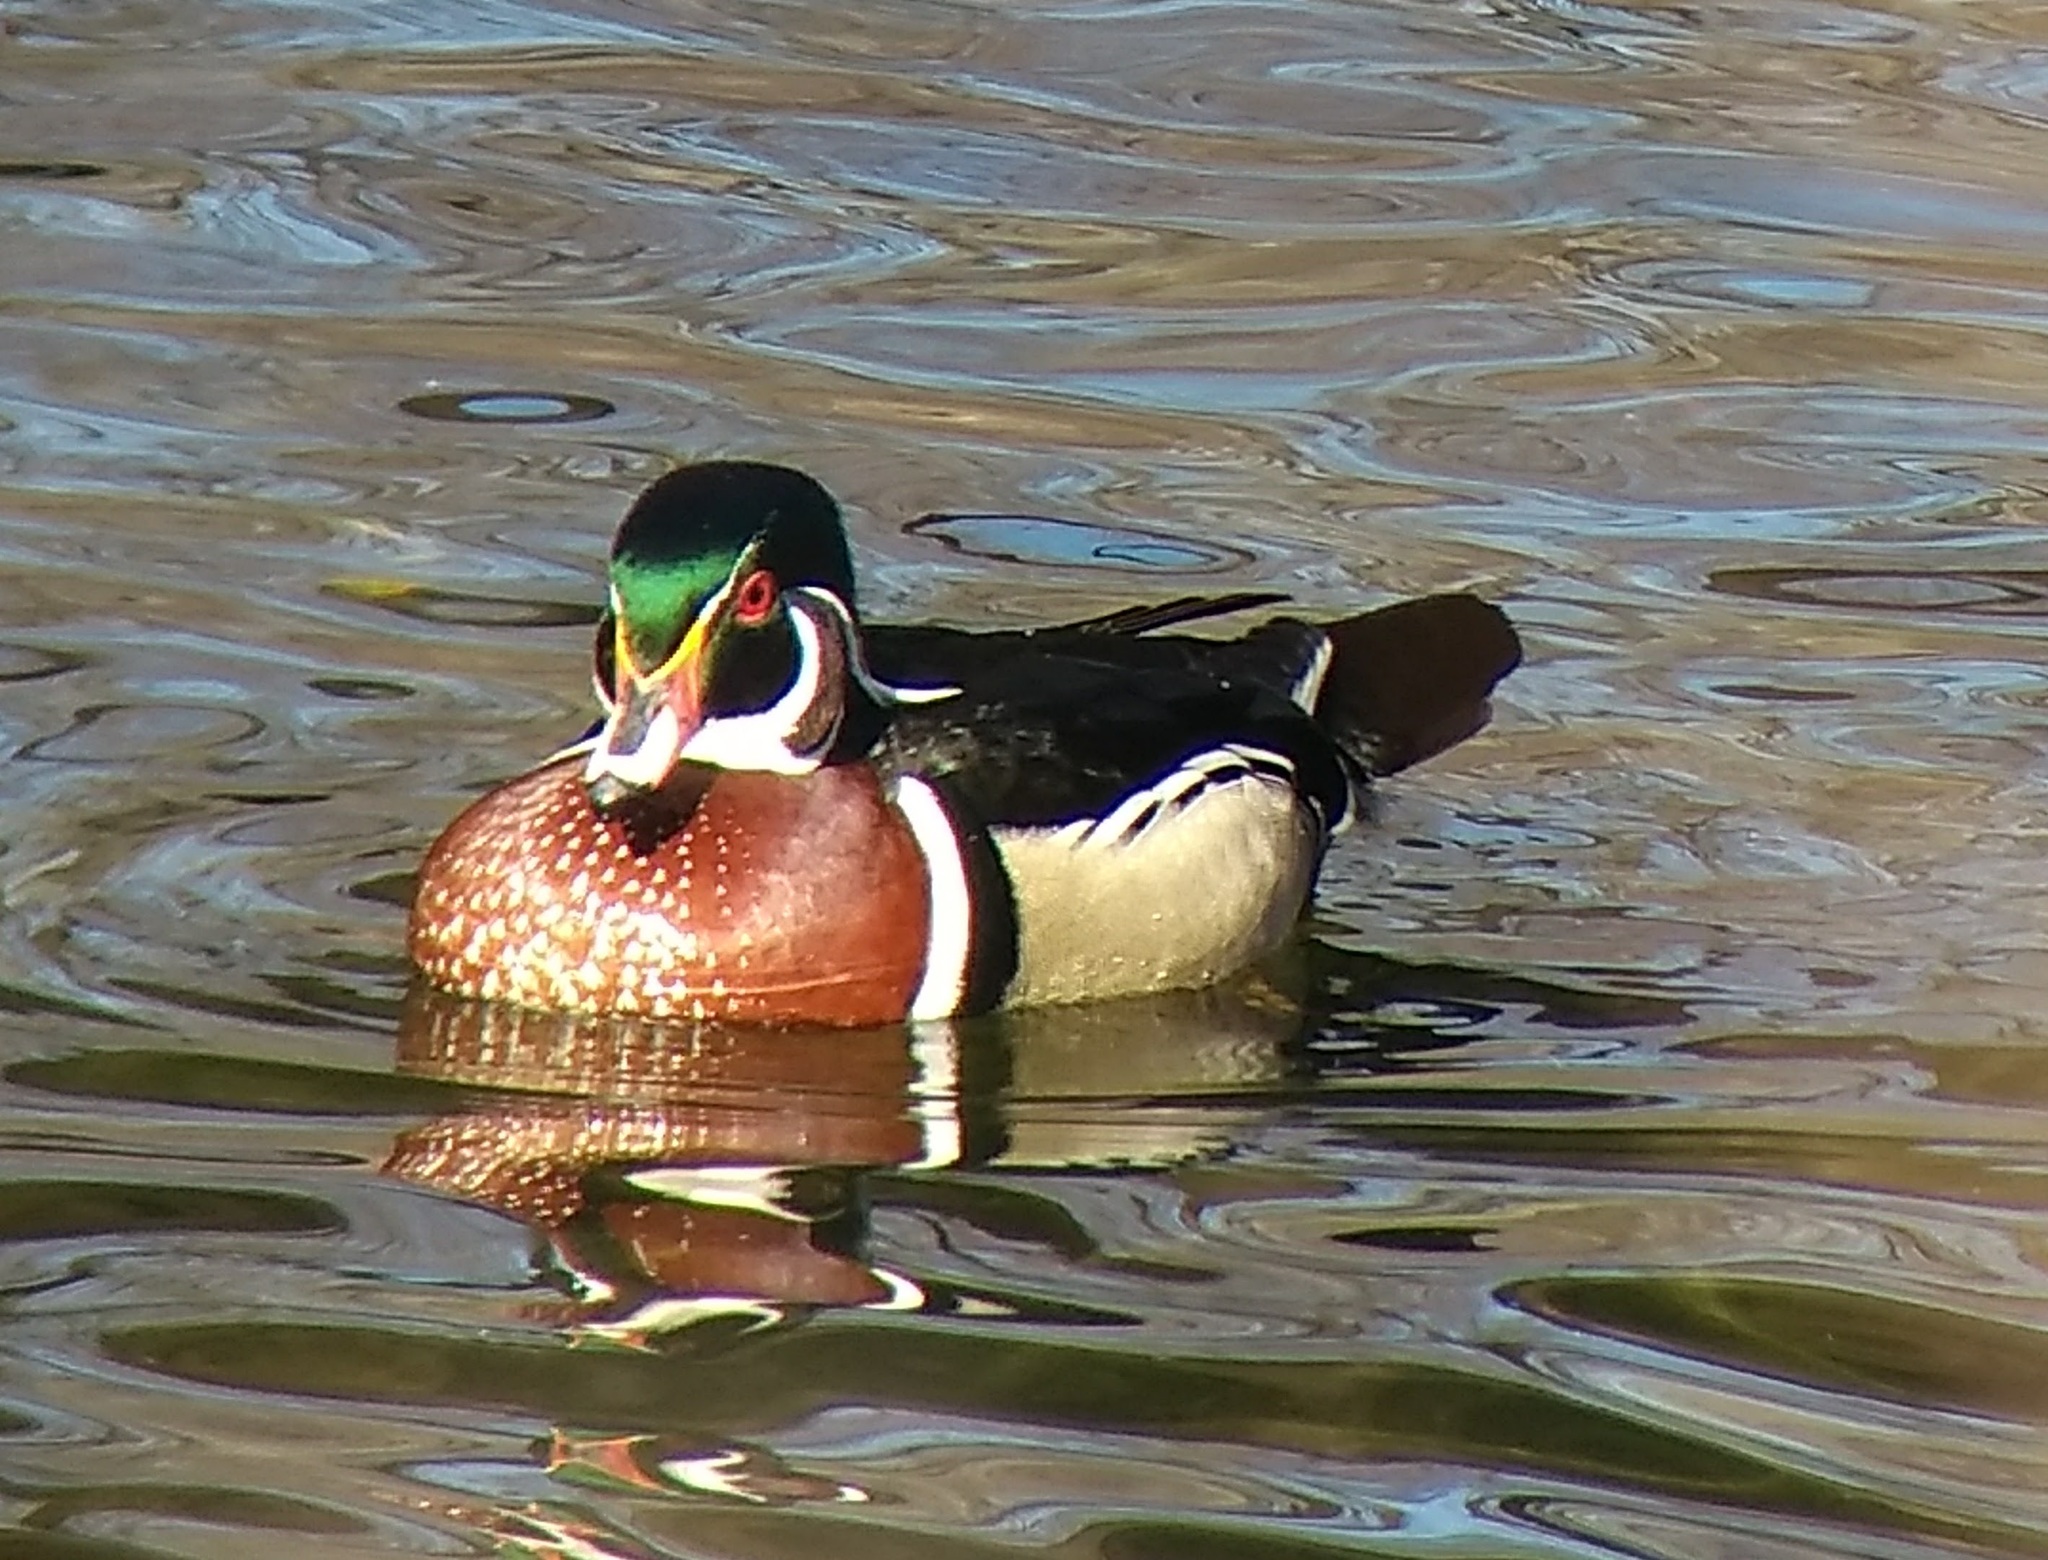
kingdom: Animalia
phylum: Chordata
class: Aves
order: Anseriformes
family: Anatidae
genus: Aix
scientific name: Aix sponsa
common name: Wood duck
